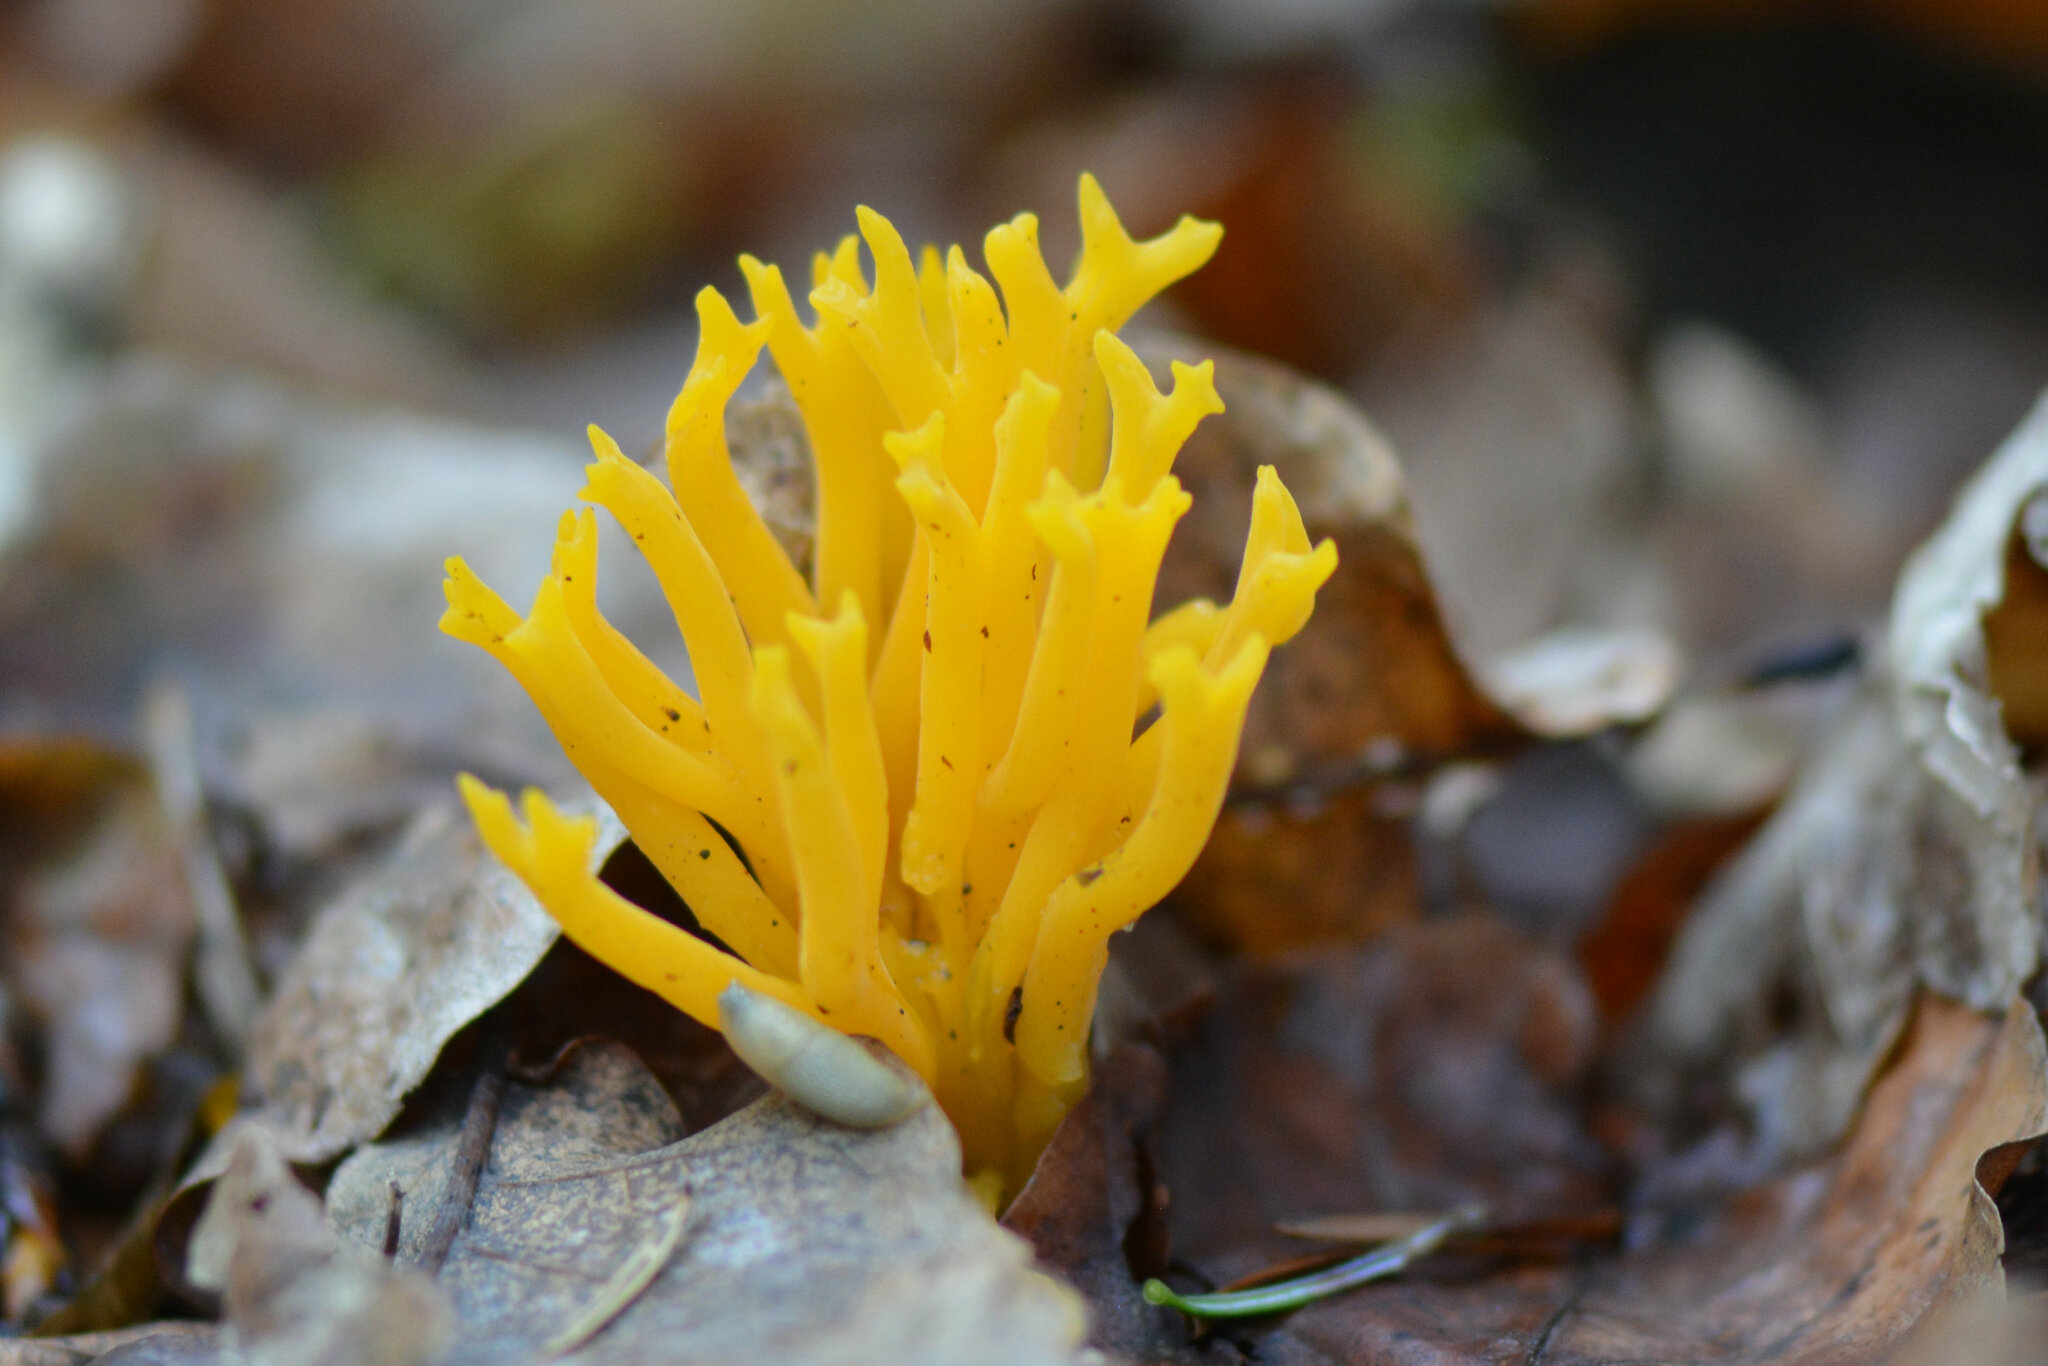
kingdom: Fungi
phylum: Basidiomycota
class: Dacrymycetes
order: Dacrymycetales
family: Dacrymycetaceae
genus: Calocera
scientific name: Calocera viscosa
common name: Yellow stagshorn
